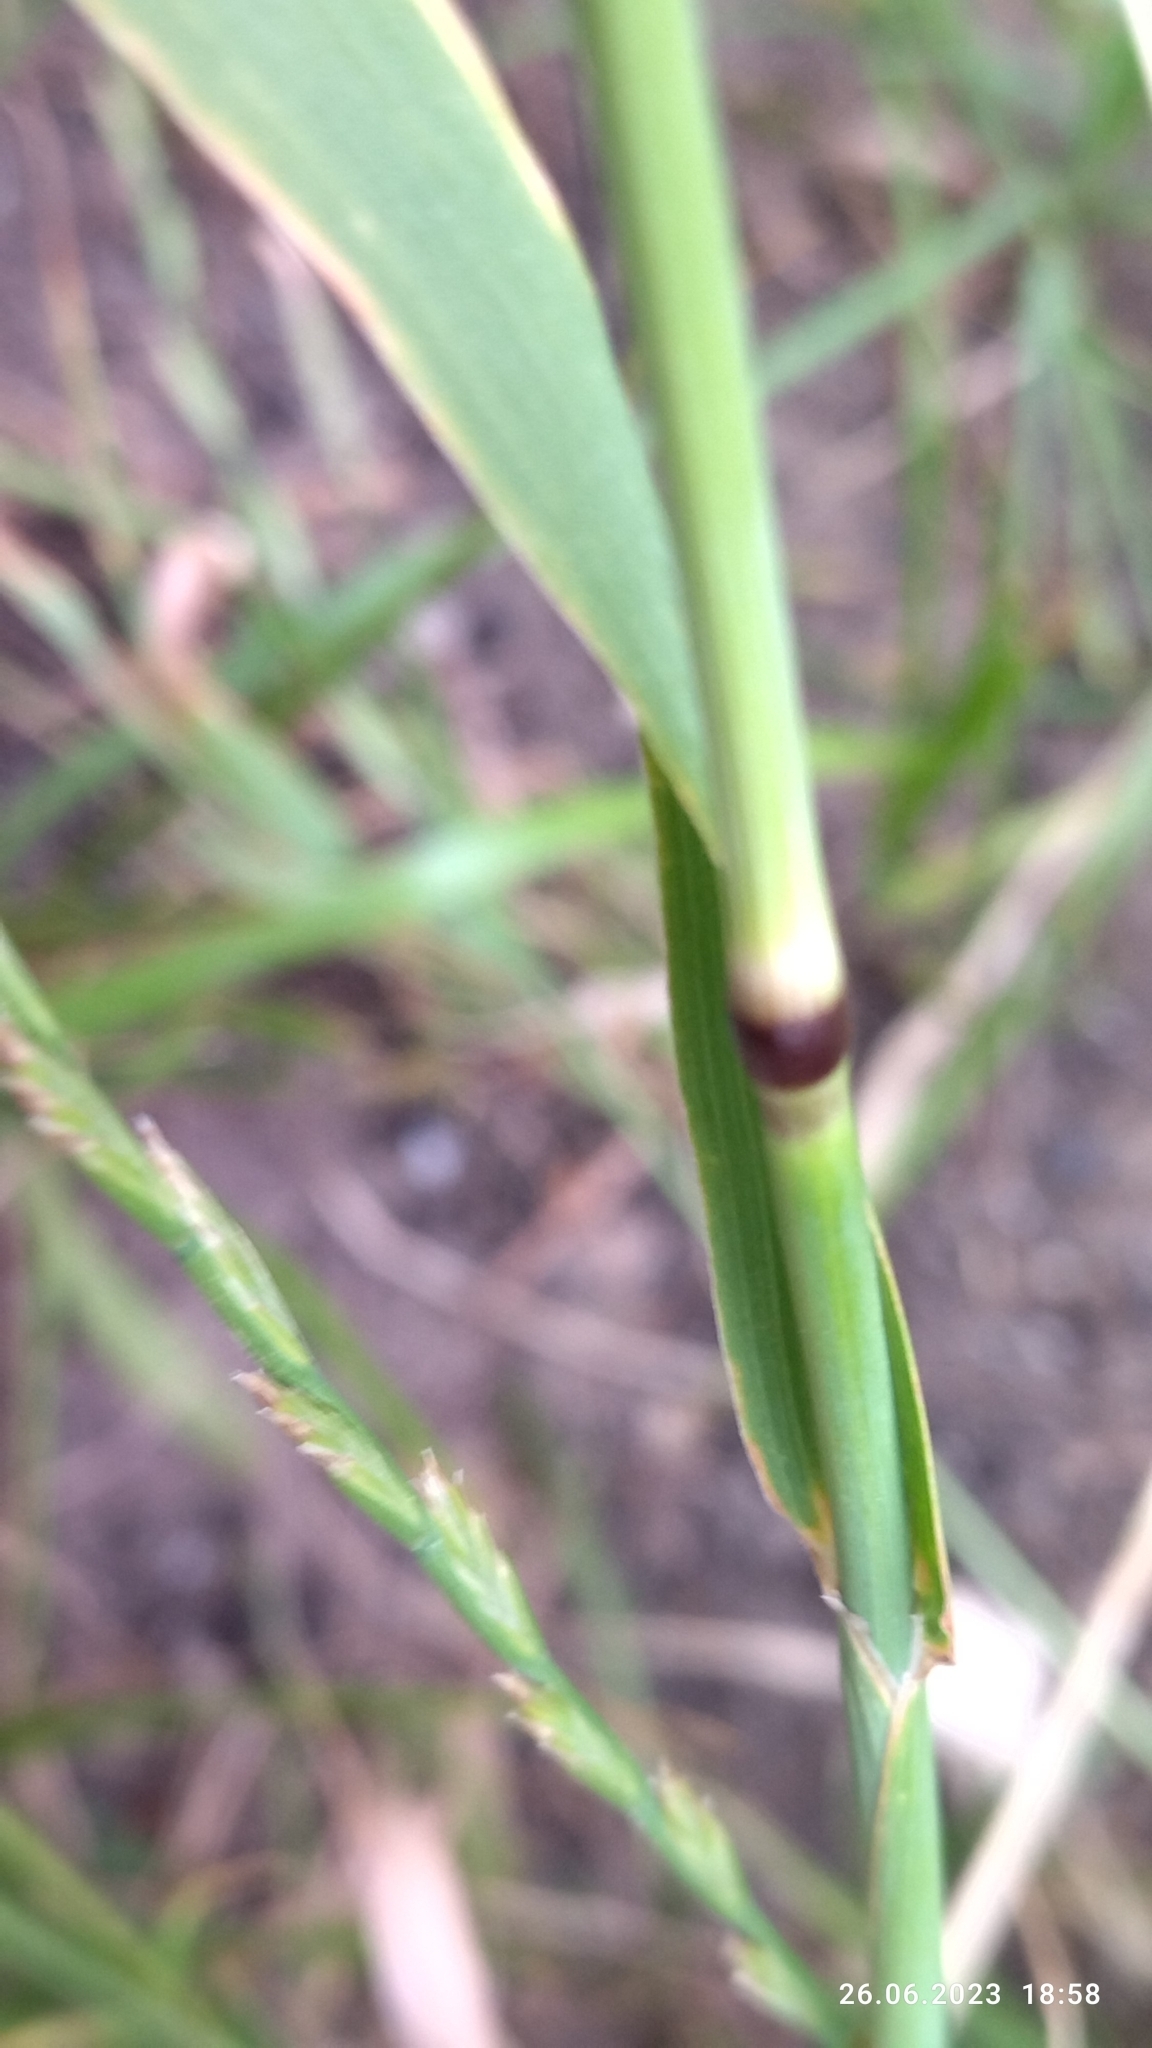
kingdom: Plantae
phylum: Tracheophyta
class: Liliopsida
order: Poales
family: Poaceae
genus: Phleum
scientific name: Phleum pratense
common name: Timothy grass
